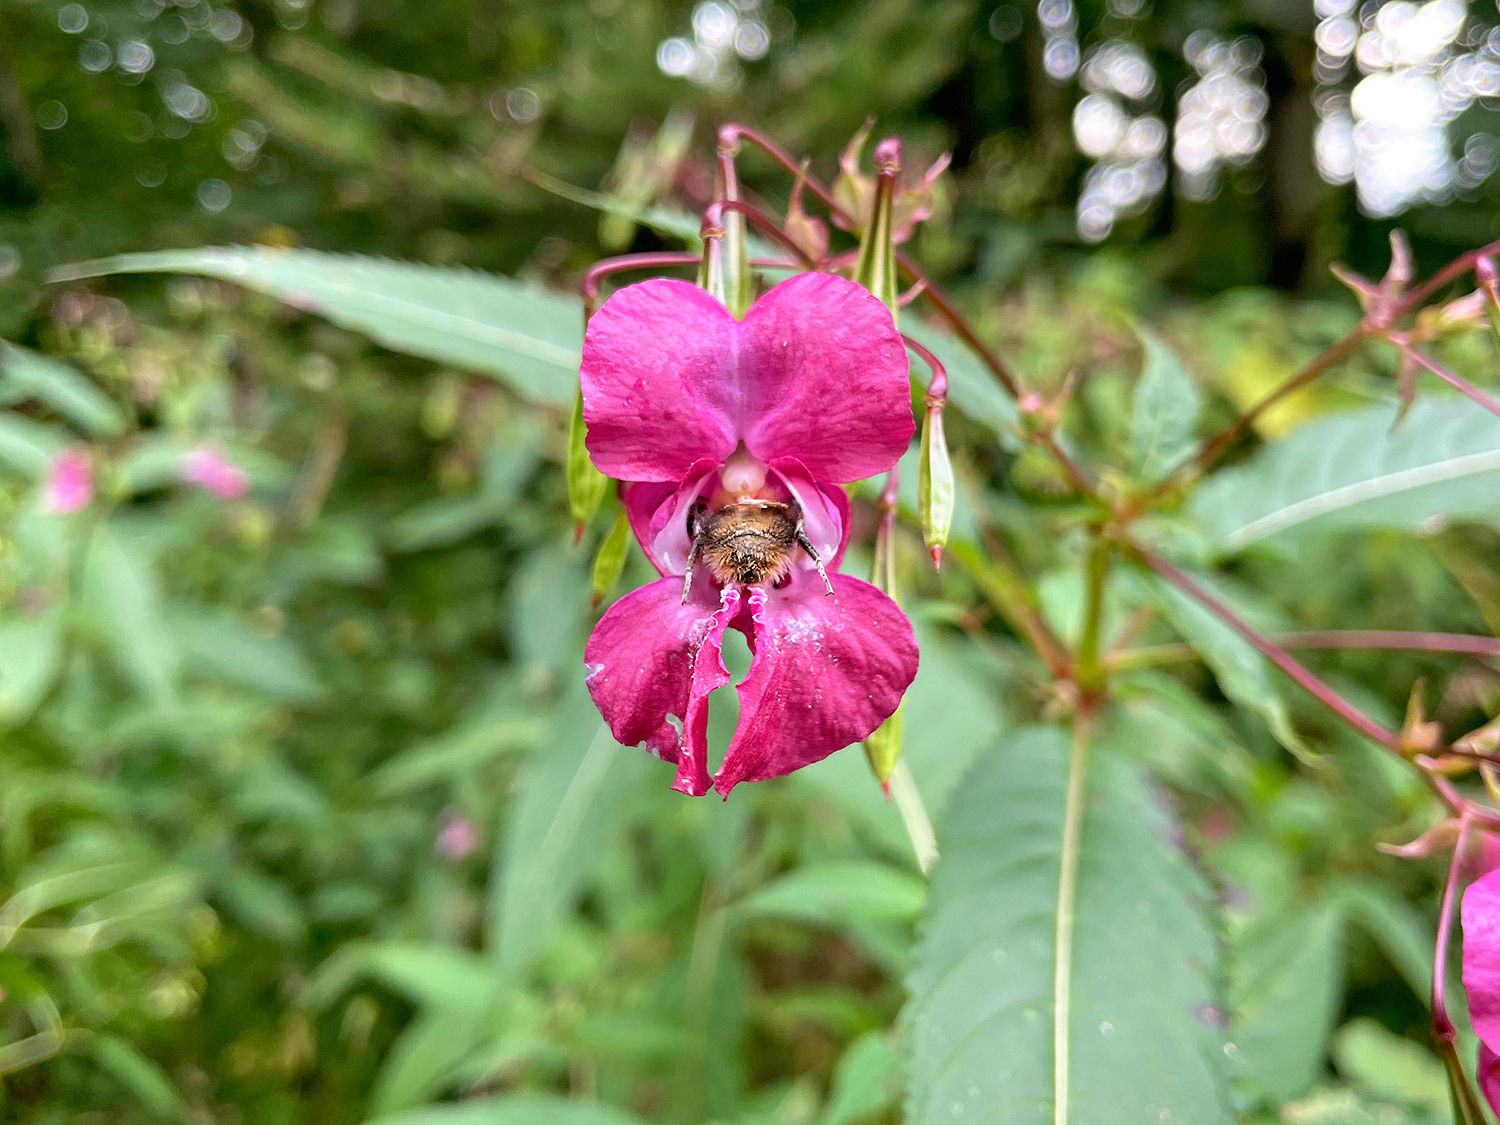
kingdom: Animalia
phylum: Arthropoda
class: Insecta
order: Hymenoptera
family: Apidae
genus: Bombus
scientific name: Bombus pascuorum
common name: Common carder bee
